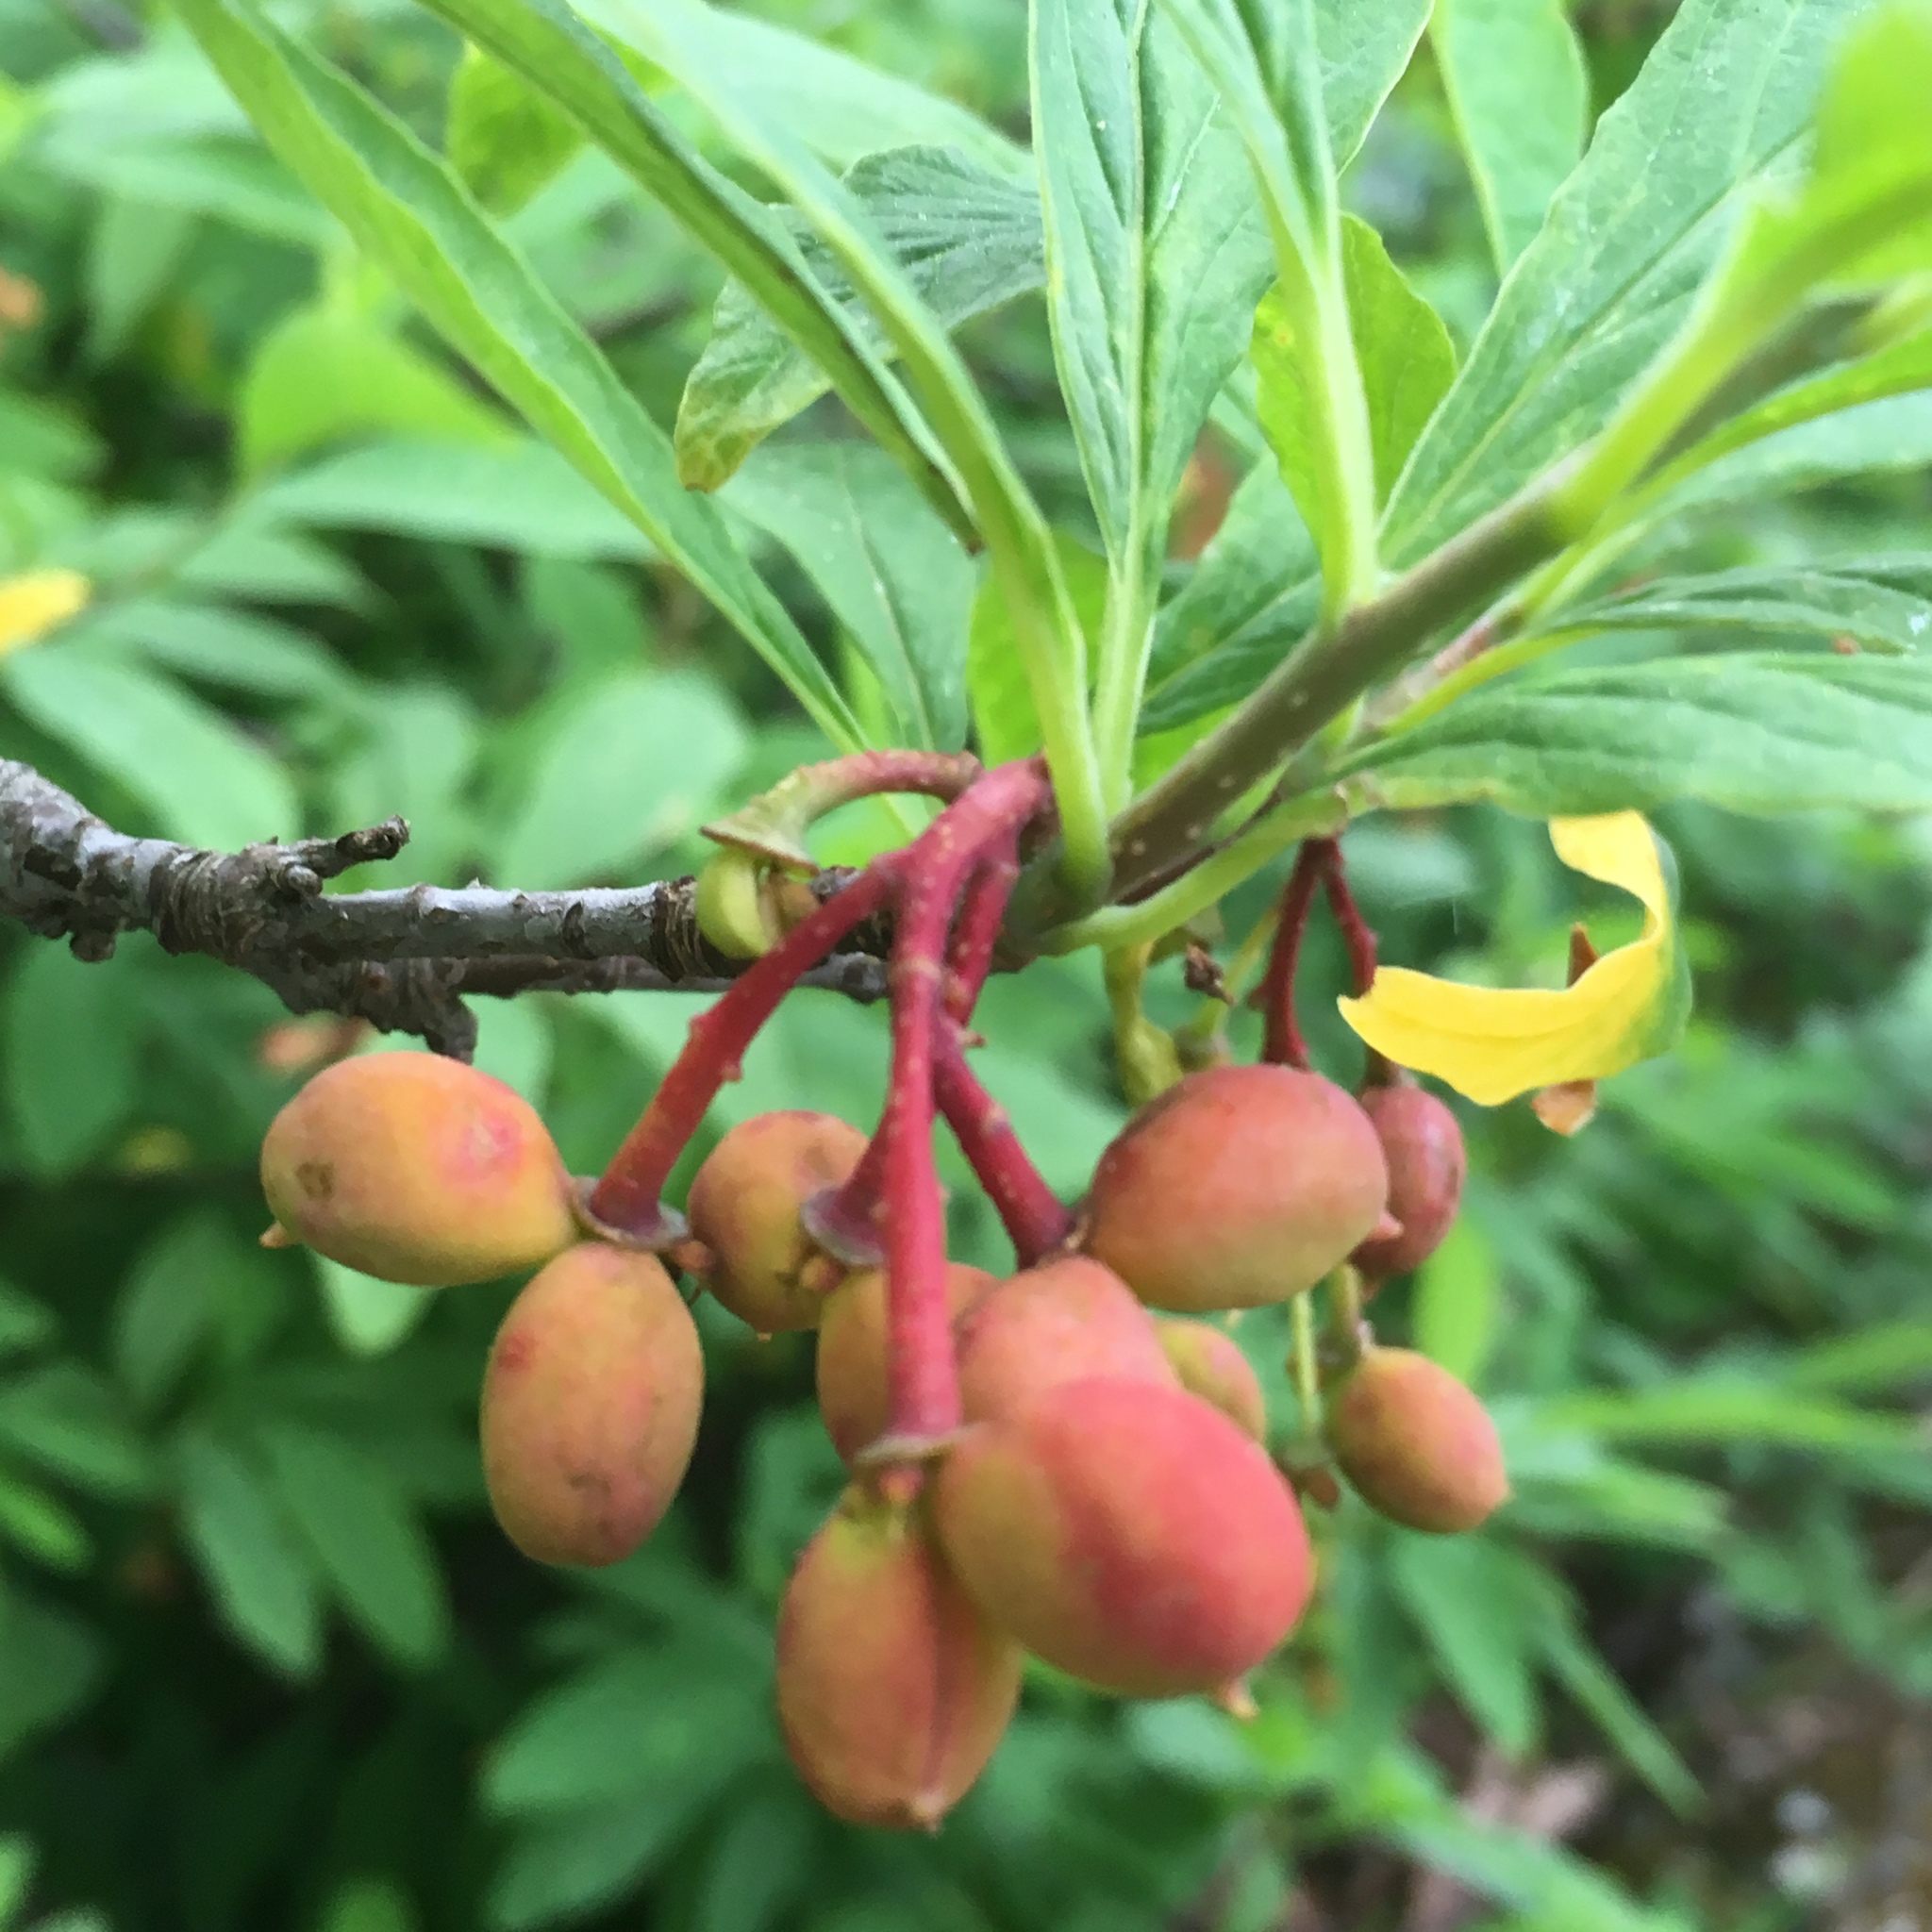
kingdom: Plantae
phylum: Tracheophyta
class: Magnoliopsida
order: Rosales
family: Rosaceae
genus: Oemleria
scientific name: Oemleria cerasiformis
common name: Osoberry
